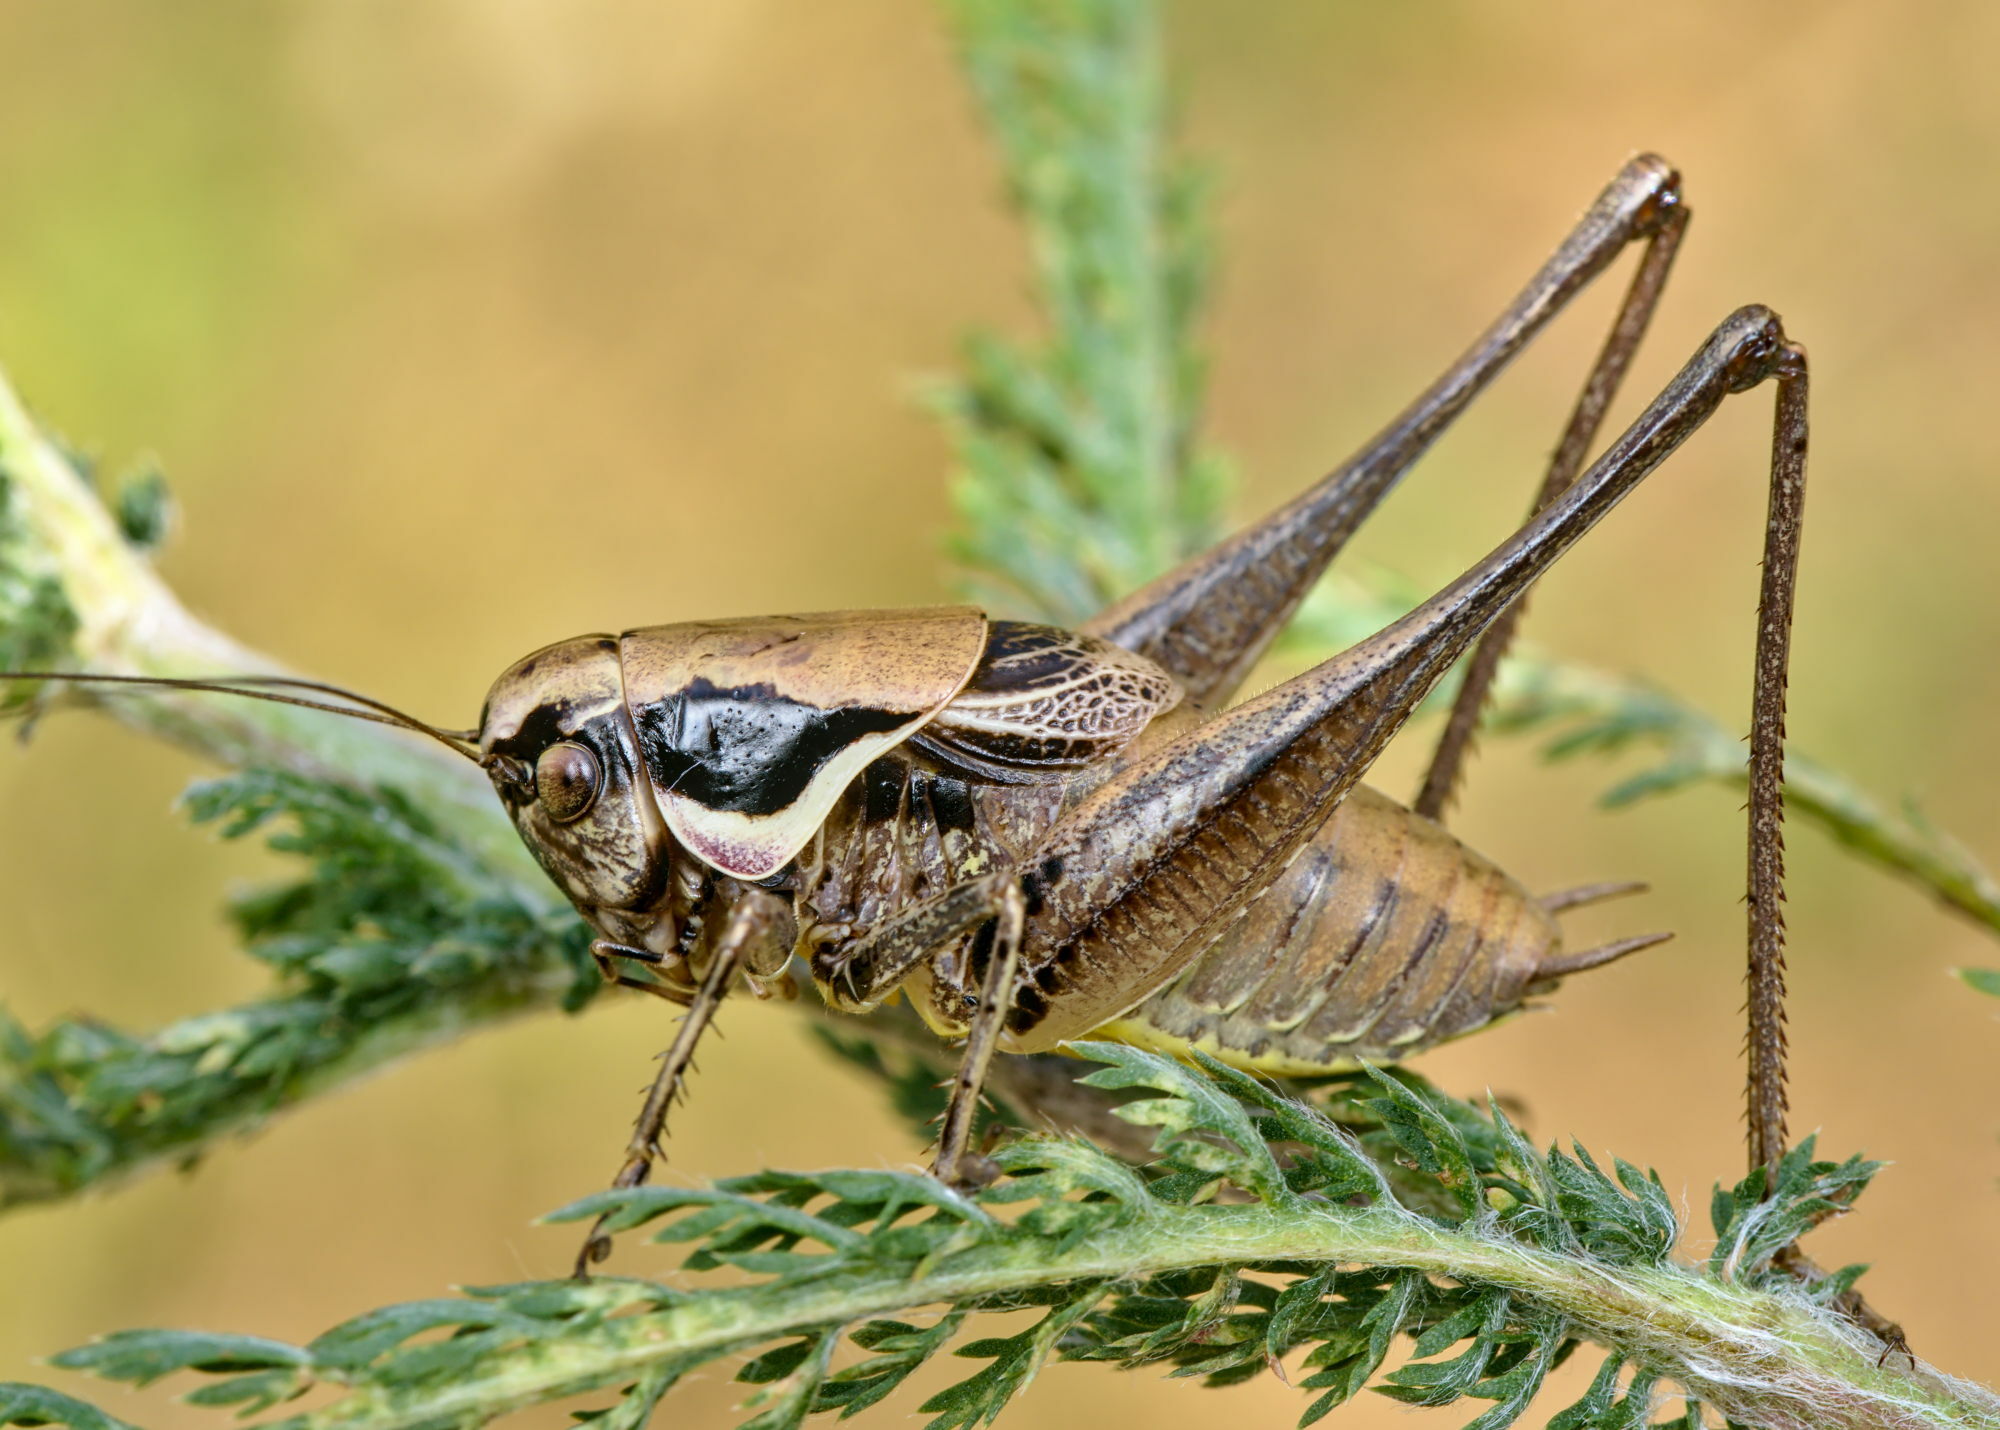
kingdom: Animalia
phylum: Arthropoda
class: Insecta
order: Orthoptera
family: Tettigoniidae
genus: Pholidoptera
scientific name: Pholidoptera fallax
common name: Fischer's bush-cricket
